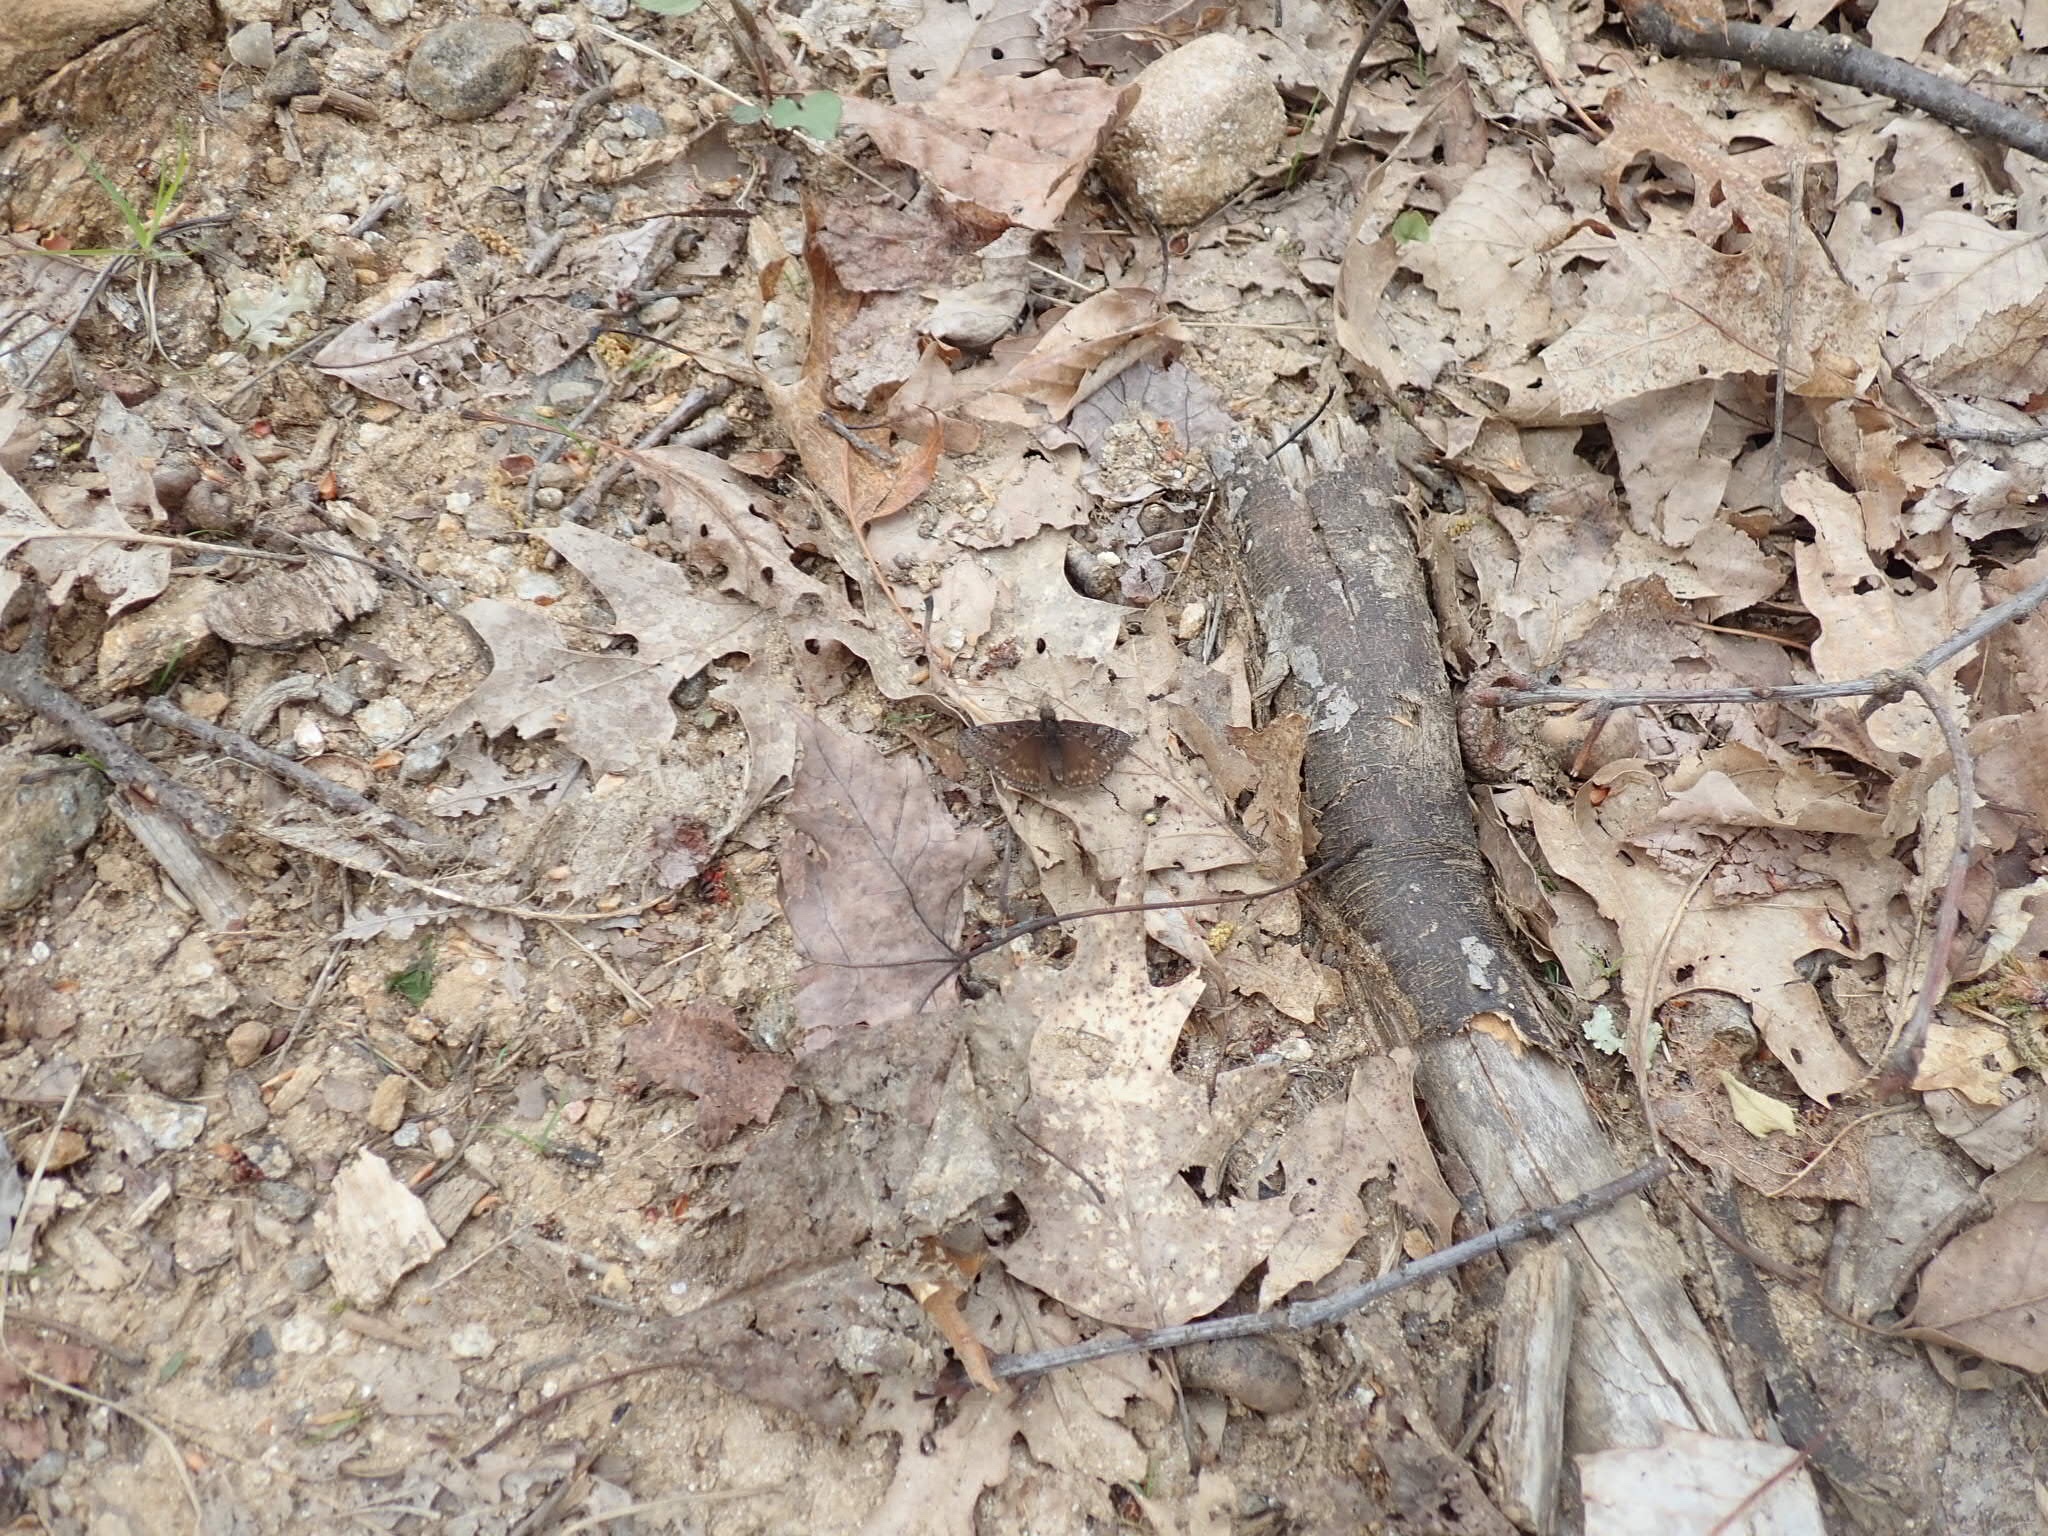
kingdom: Animalia
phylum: Arthropoda
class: Insecta
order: Lepidoptera
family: Hesperiidae
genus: Erynnis
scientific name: Erynnis brizo
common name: Sleepy duskywing
